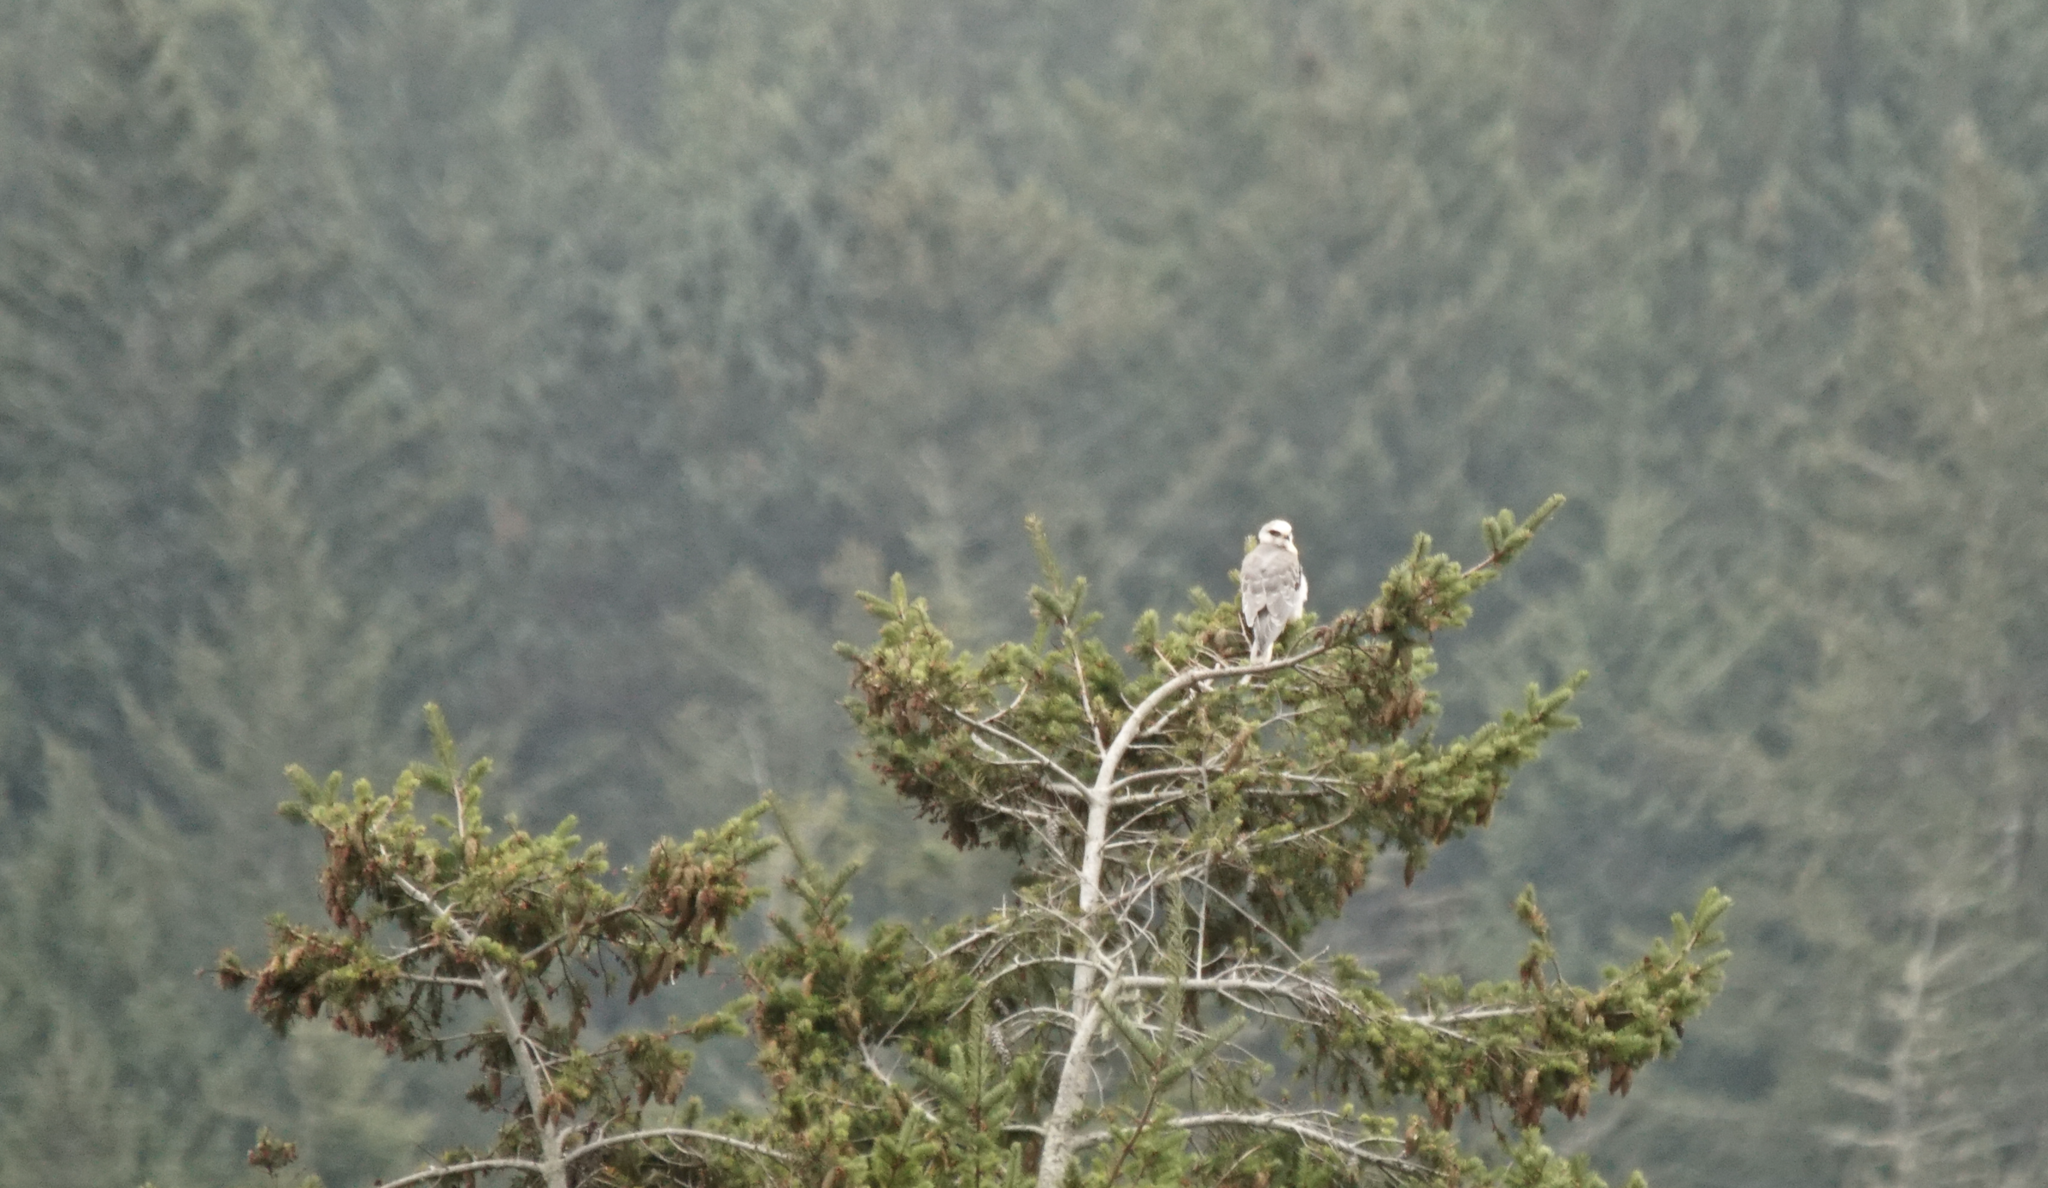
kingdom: Animalia
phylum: Chordata
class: Aves
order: Accipitriformes
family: Accipitridae
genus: Elanus
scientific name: Elanus leucurus
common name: White-tailed kite
